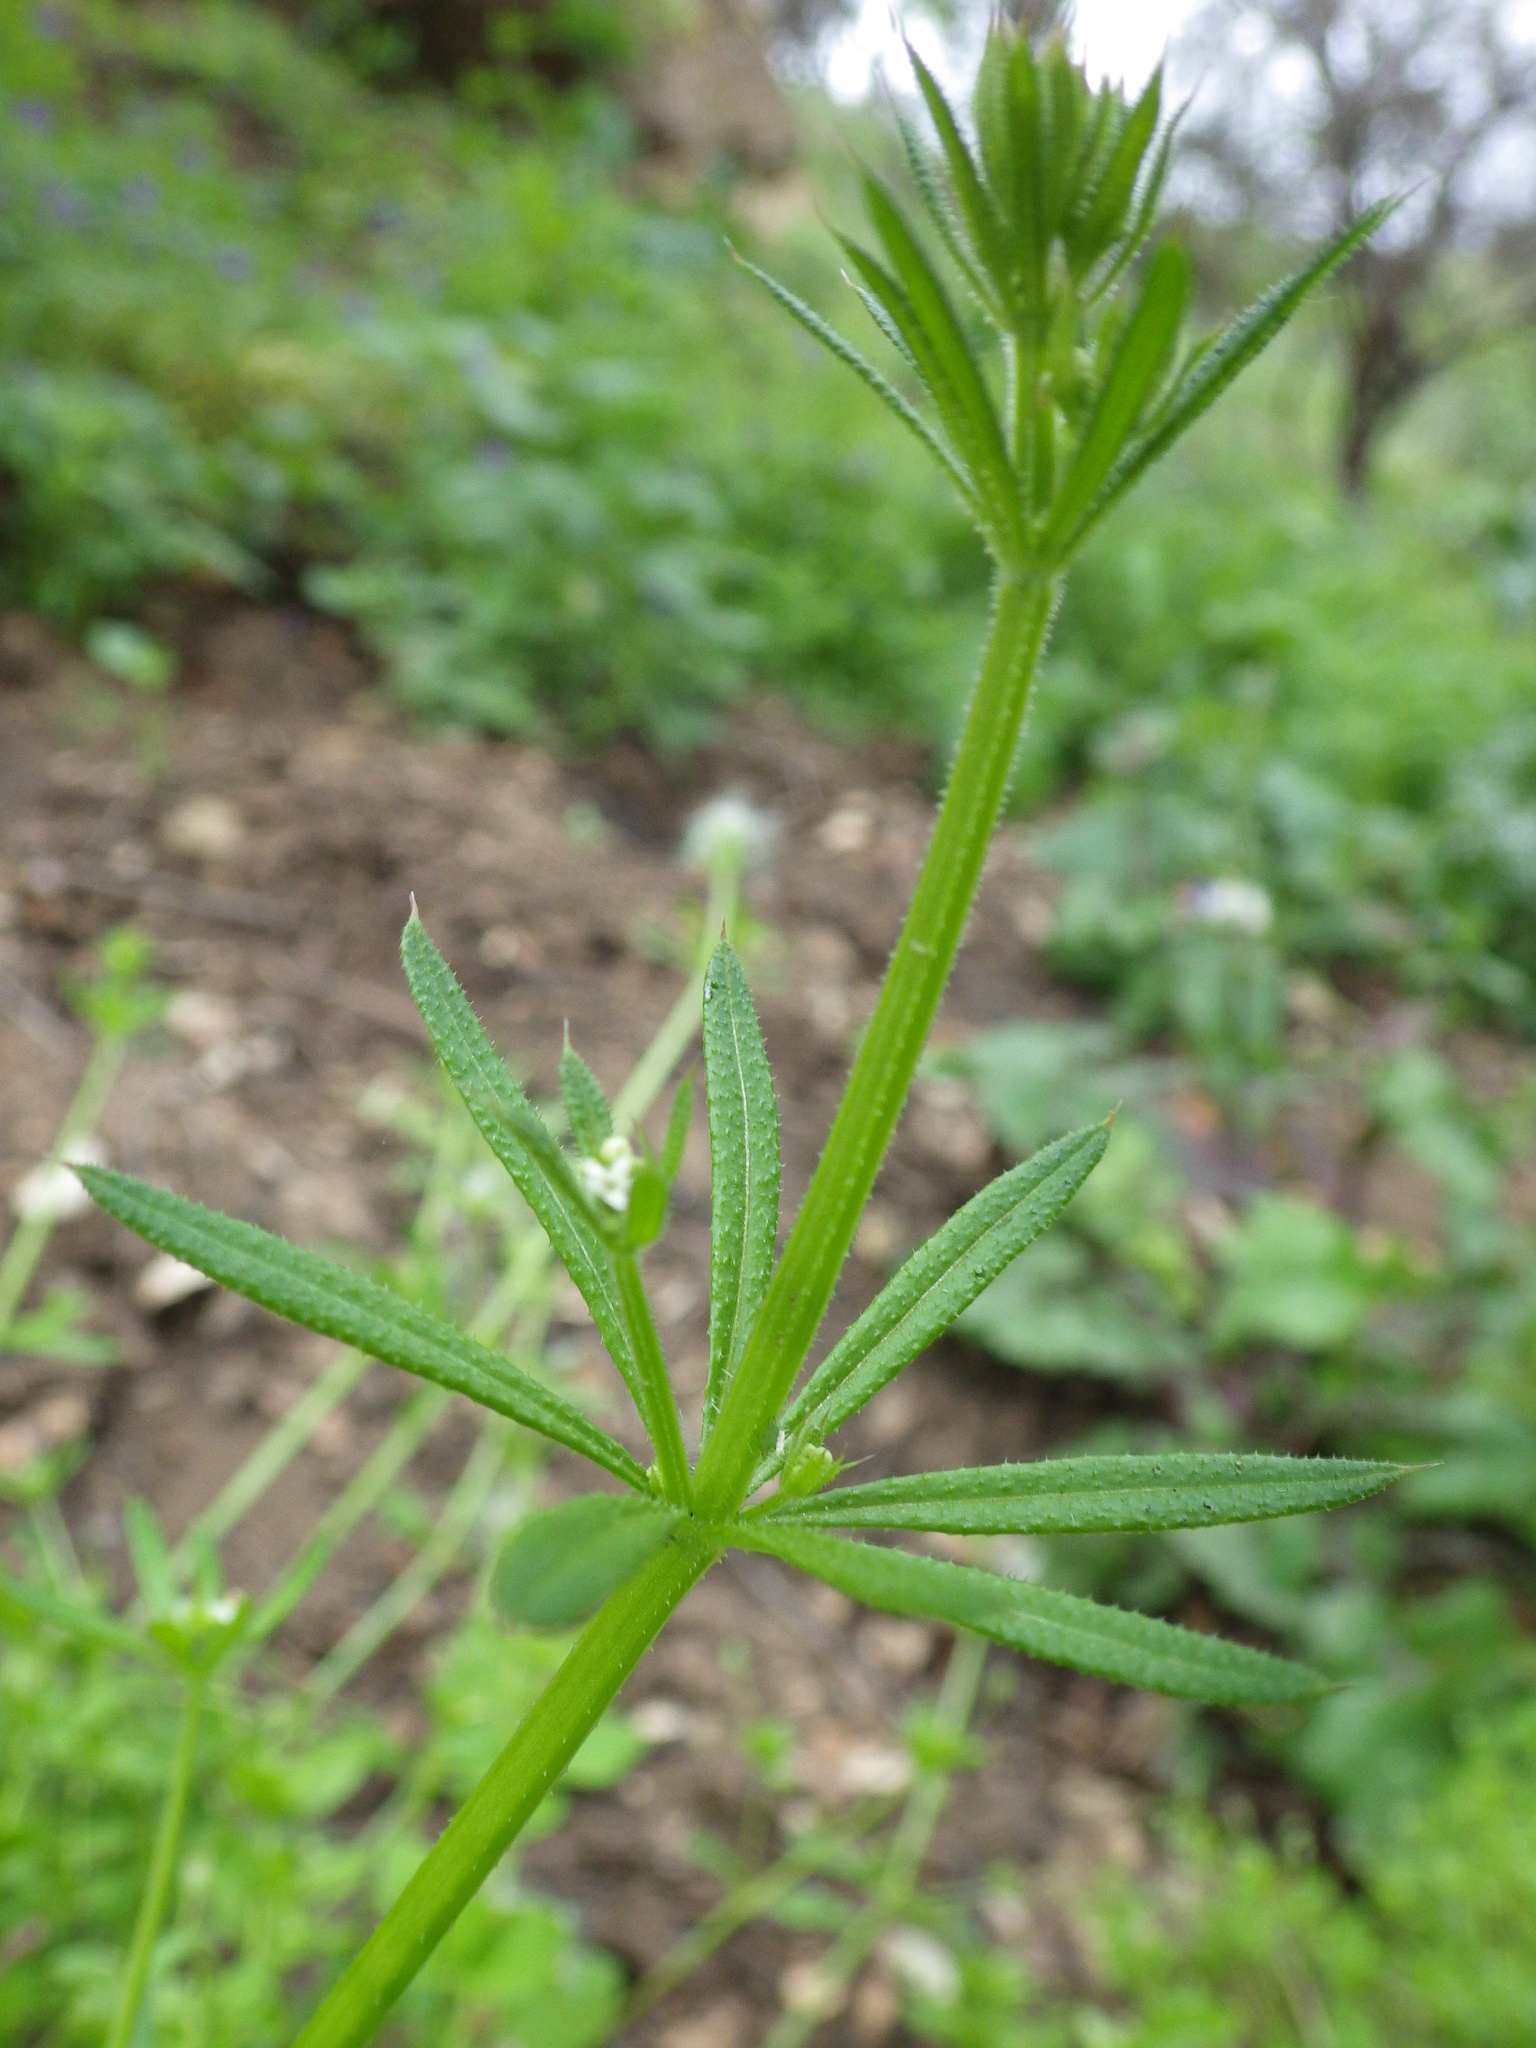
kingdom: Plantae
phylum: Tracheophyta
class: Magnoliopsida
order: Gentianales
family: Rubiaceae
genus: Galium
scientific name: Galium aparine
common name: Cleavers
